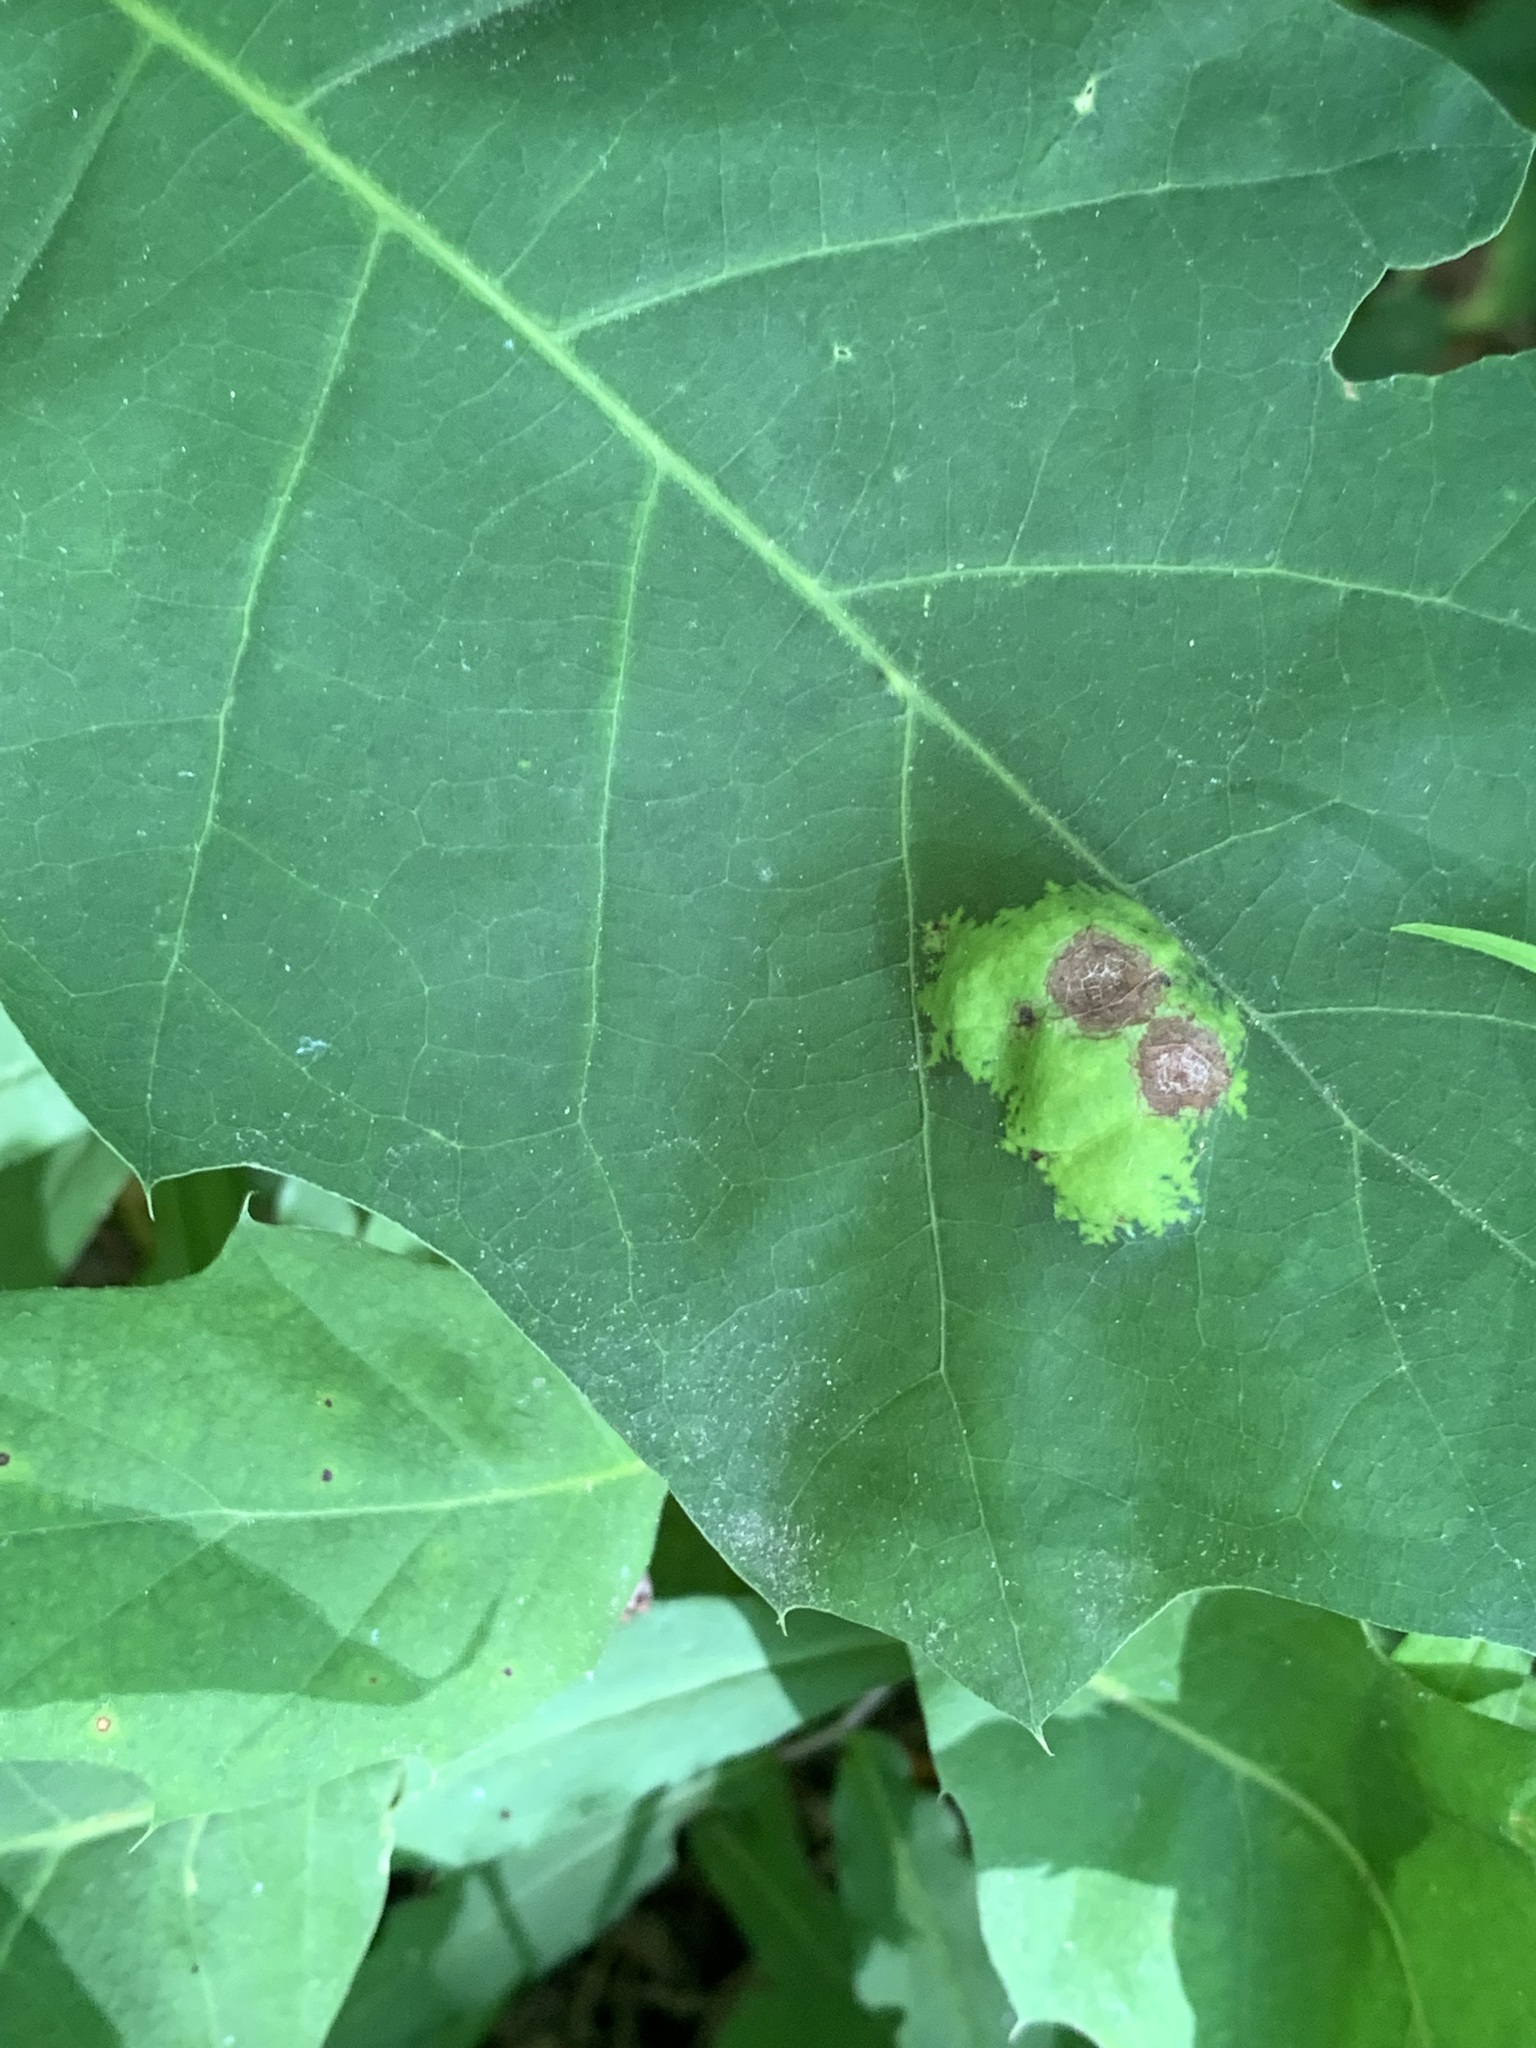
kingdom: Fungi
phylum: Ascomycota
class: Taphrinomycetes
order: Taphrinales
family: Taphrinaceae
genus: Taphrina
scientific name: Taphrina caerulescens
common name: Oak leaf blister
